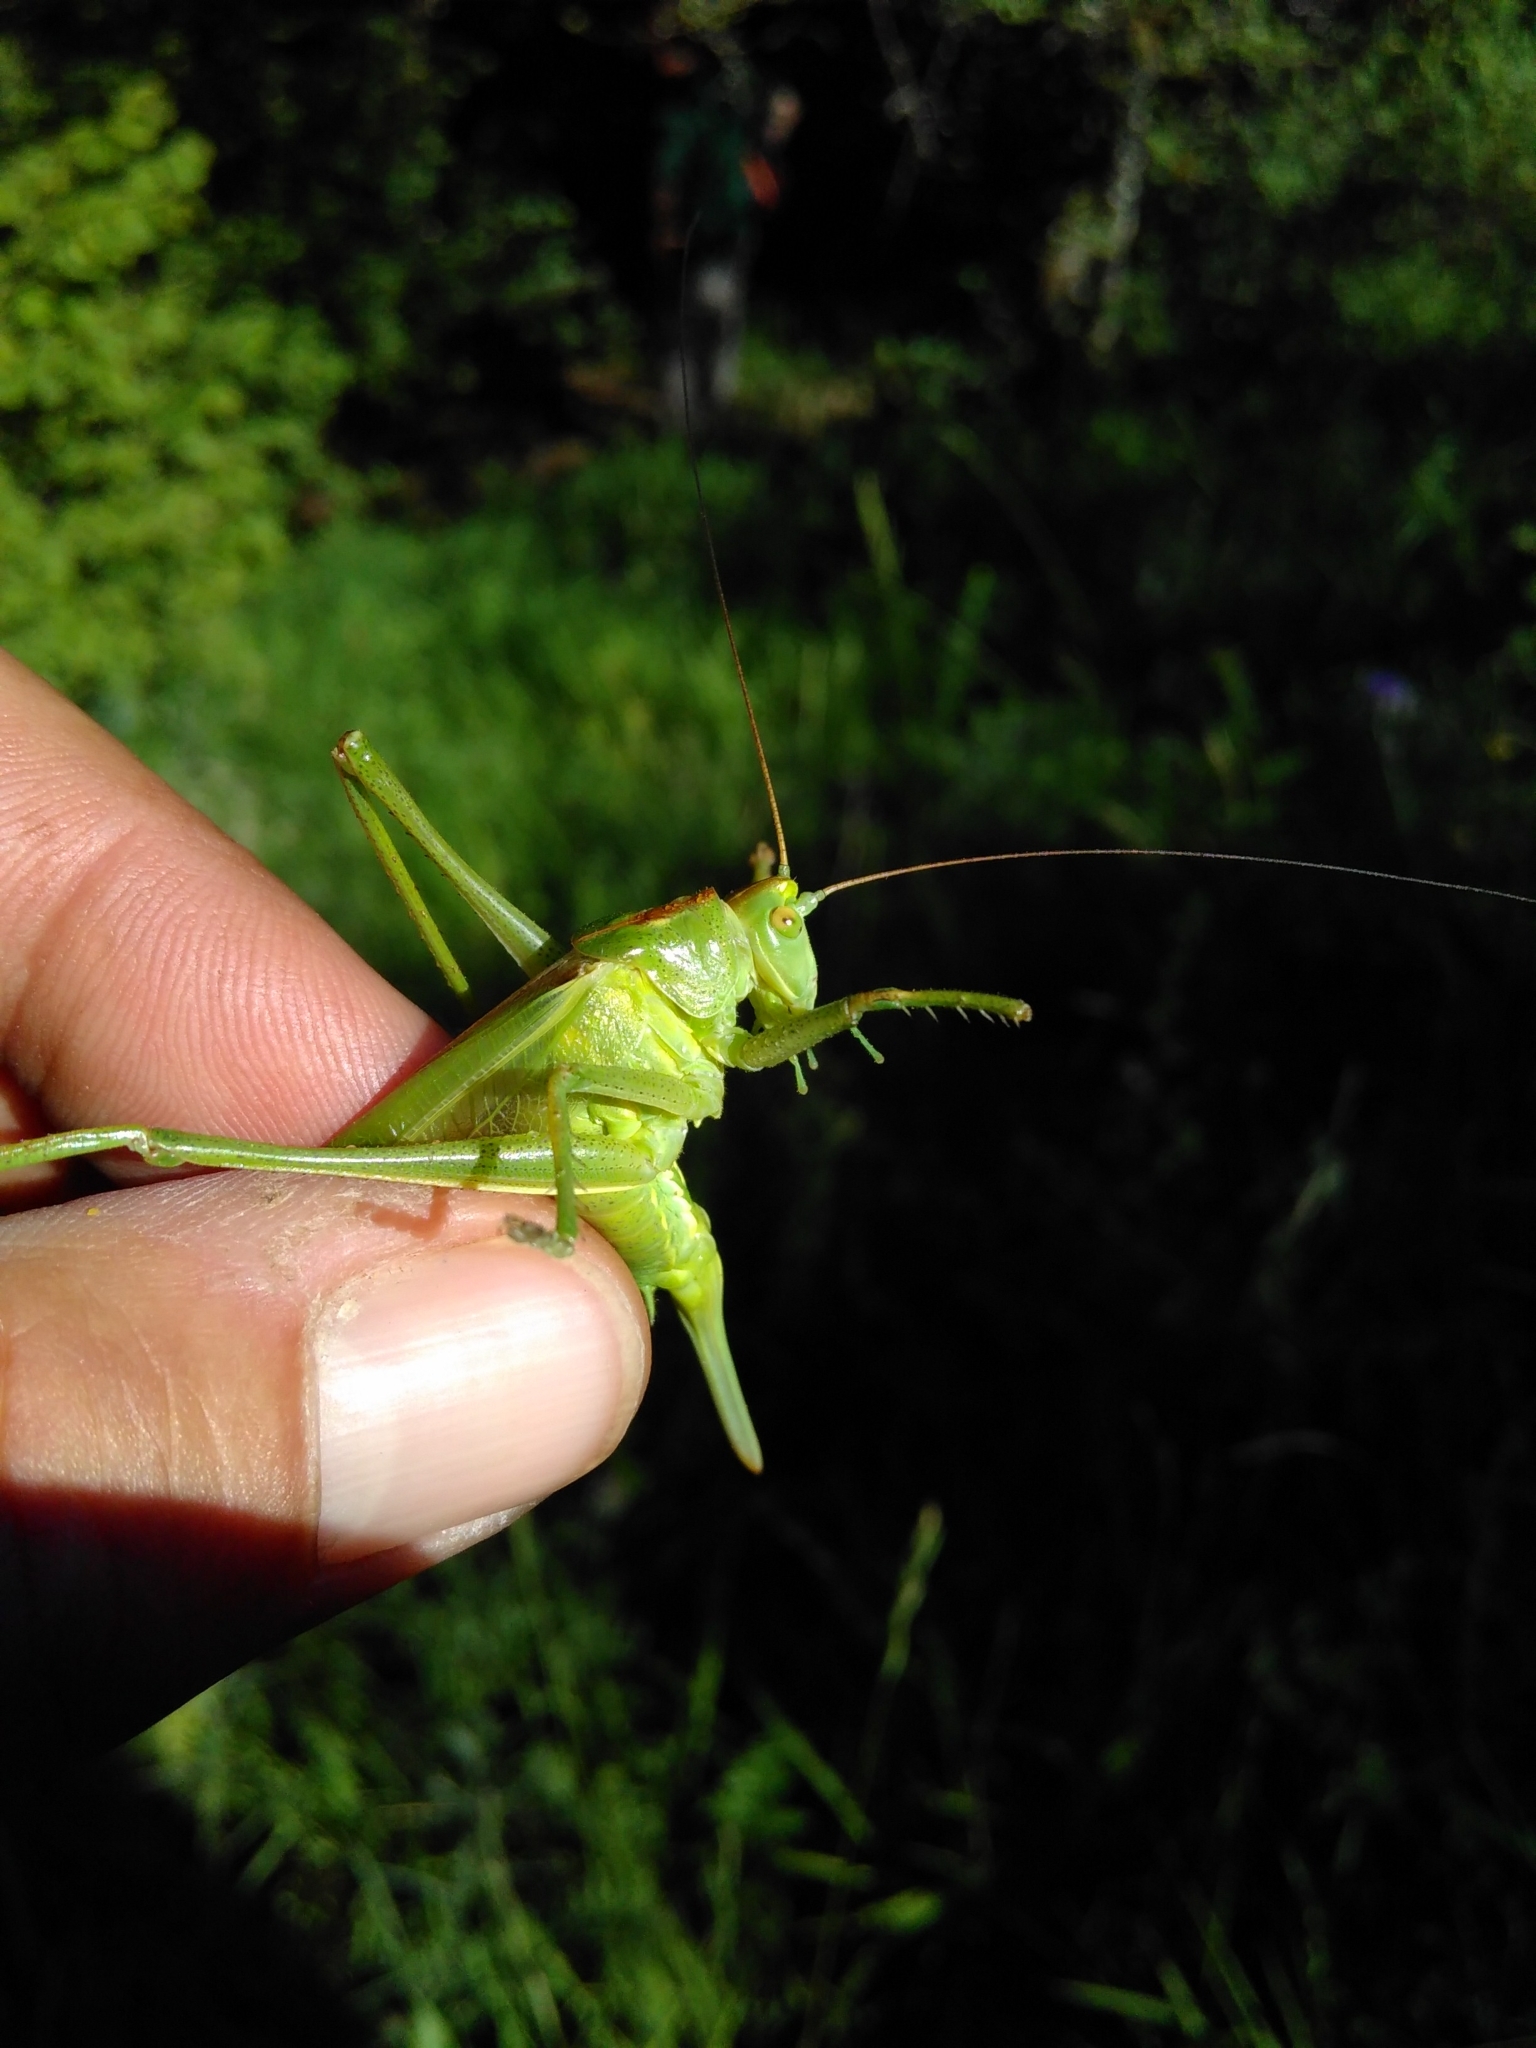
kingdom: Animalia
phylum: Arthropoda
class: Insecta
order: Orthoptera
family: Tettigoniidae
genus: Tettigonia
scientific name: Tettigonia viridissima
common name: Great green bush-cricket
